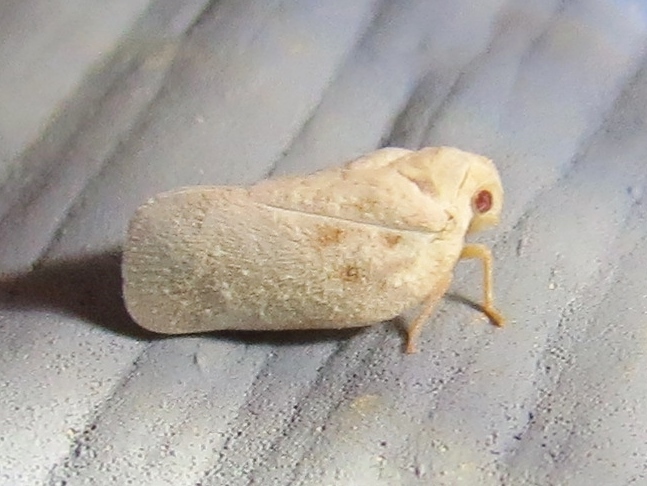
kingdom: Animalia
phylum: Arthropoda
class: Insecta
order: Hemiptera
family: Flatidae
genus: Metcalfa
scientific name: Metcalfa pruinosa
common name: Citrus flatid planthopper
